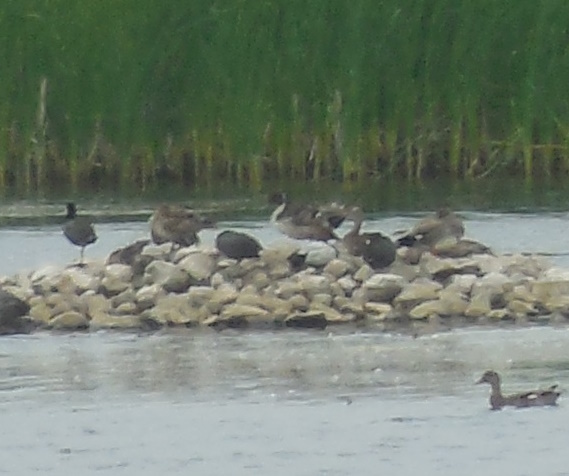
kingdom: Animalia
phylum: Chordata
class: Aves
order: Anseriformes
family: Anatidae
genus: Anas
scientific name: Anas acuta
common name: Northern pintail
